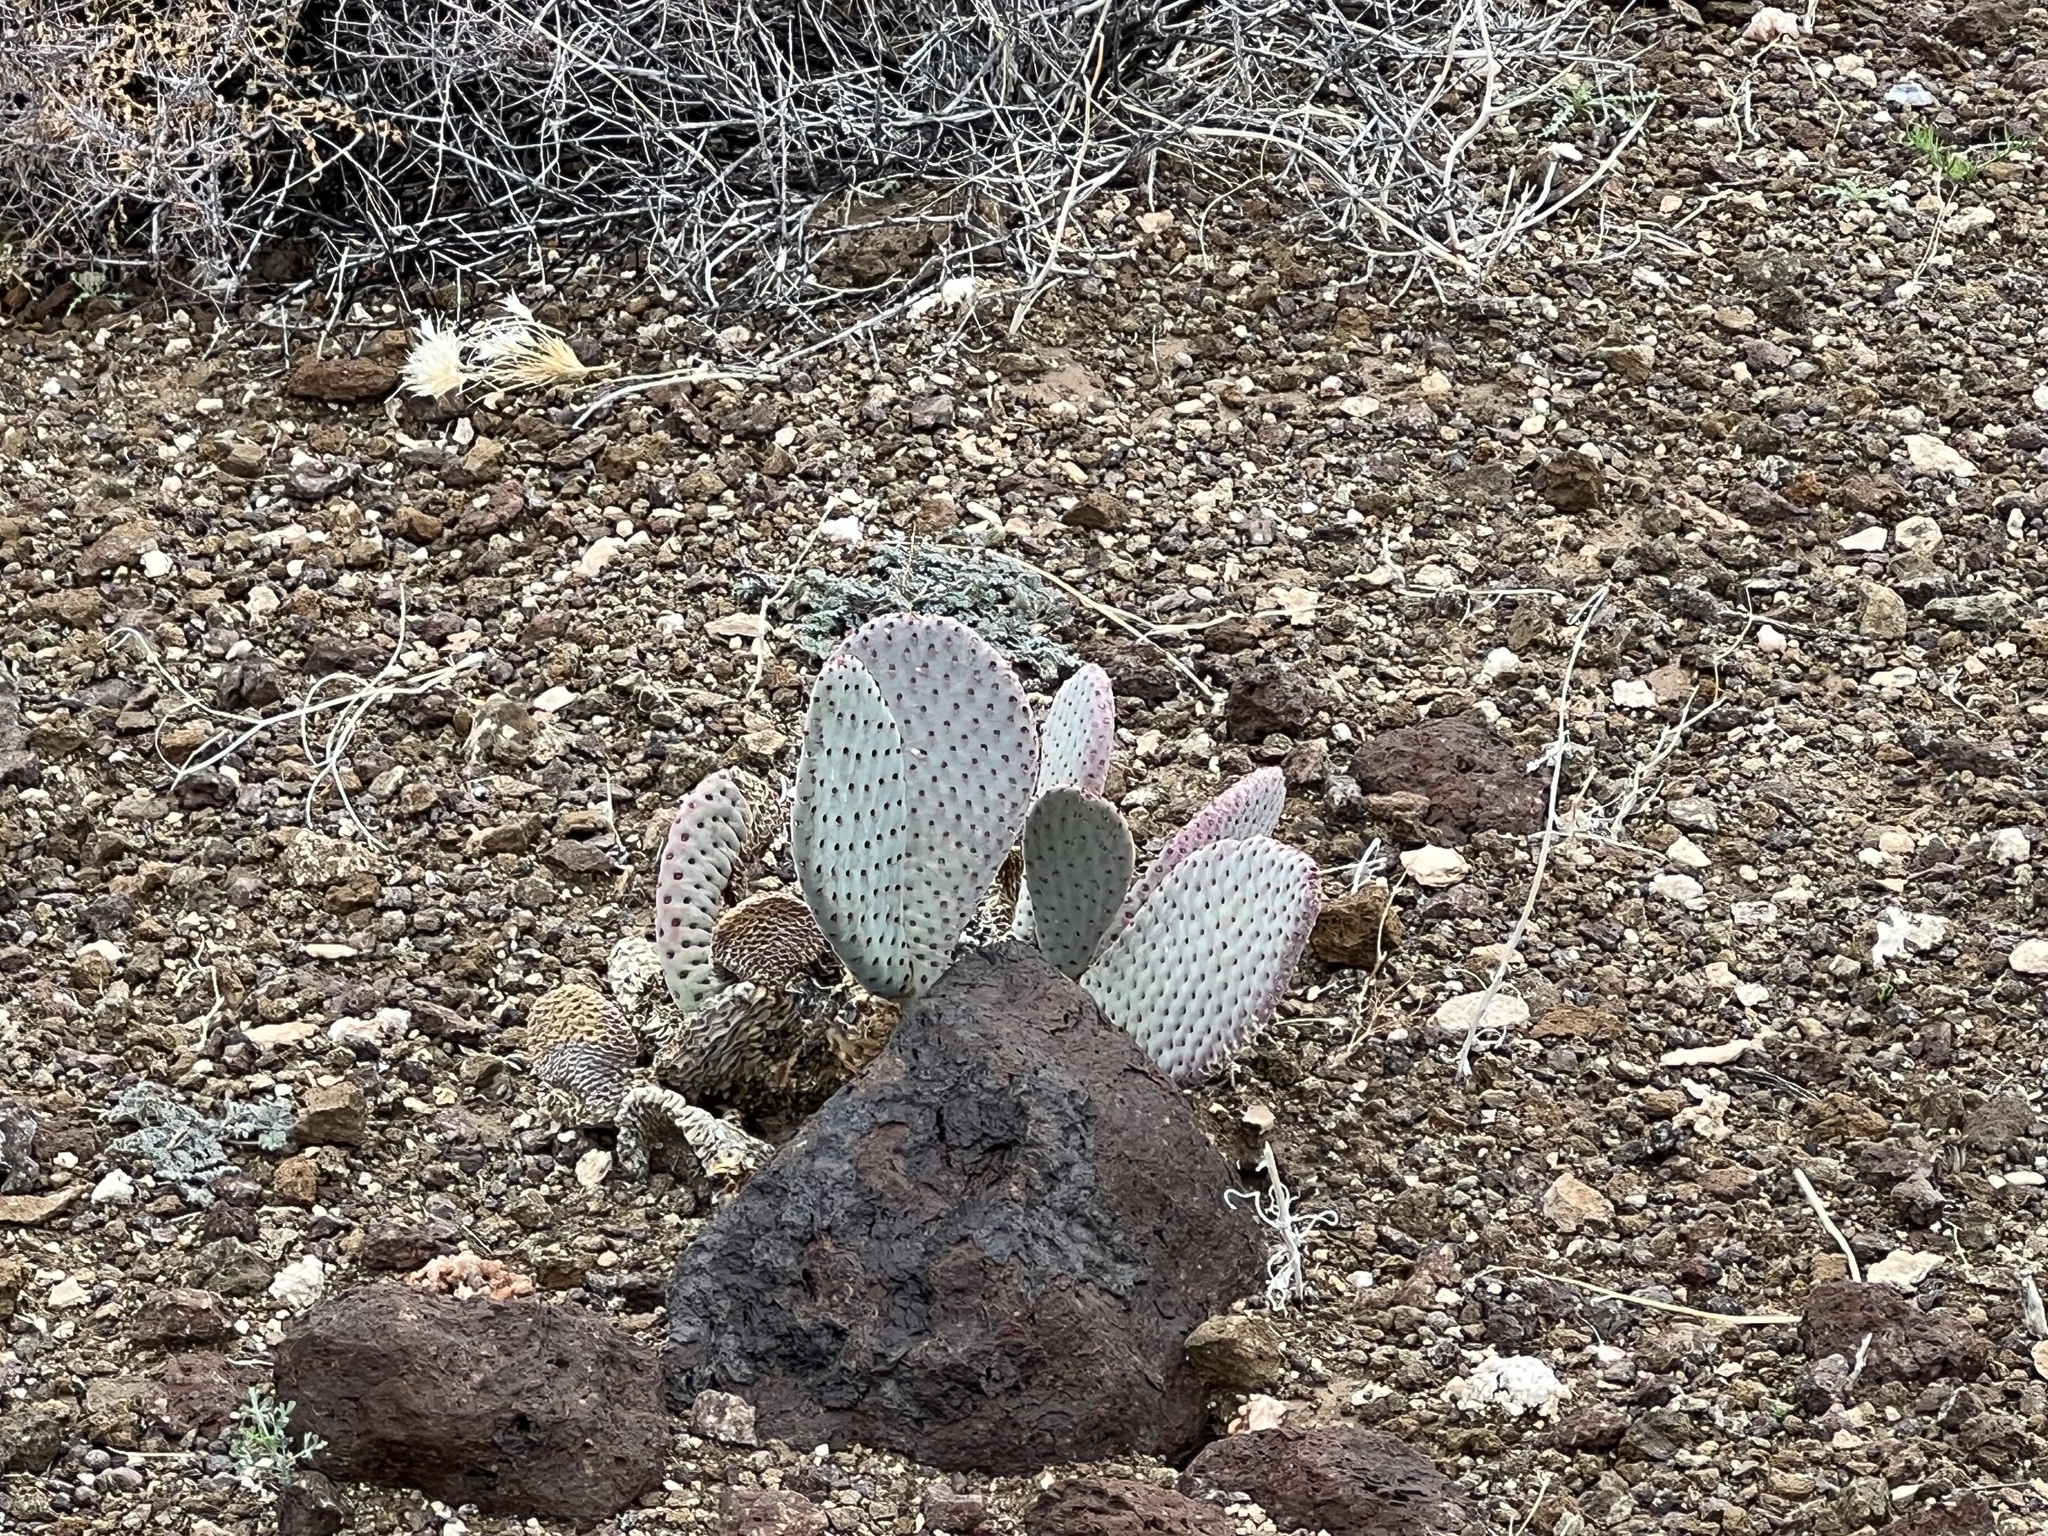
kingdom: Plantae
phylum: Tracheophyta
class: Magnoliopsida
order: Caryophyllales
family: Cactaceae
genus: Opuntia
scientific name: Opuntia basilaris
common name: Beavertail prickly-pear
